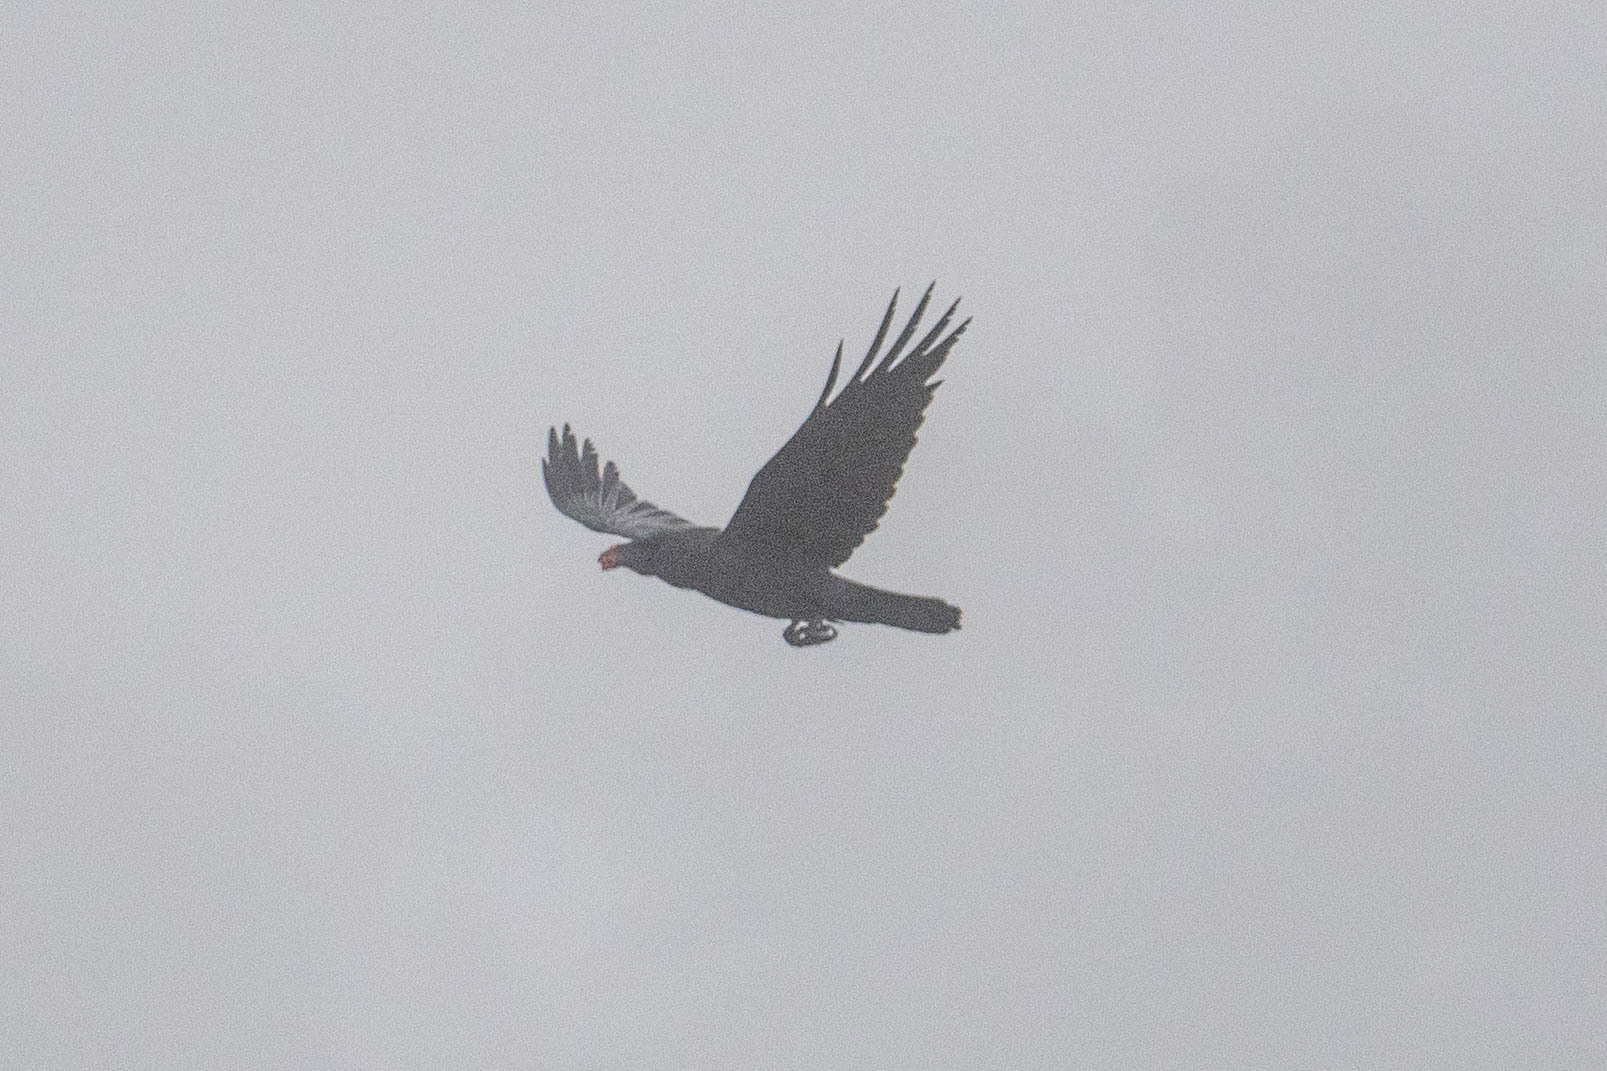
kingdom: Animalia
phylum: Chordata
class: Aves
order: Passeriformes
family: Corvidae
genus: Corvus
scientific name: Corvus corax
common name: Common raven
